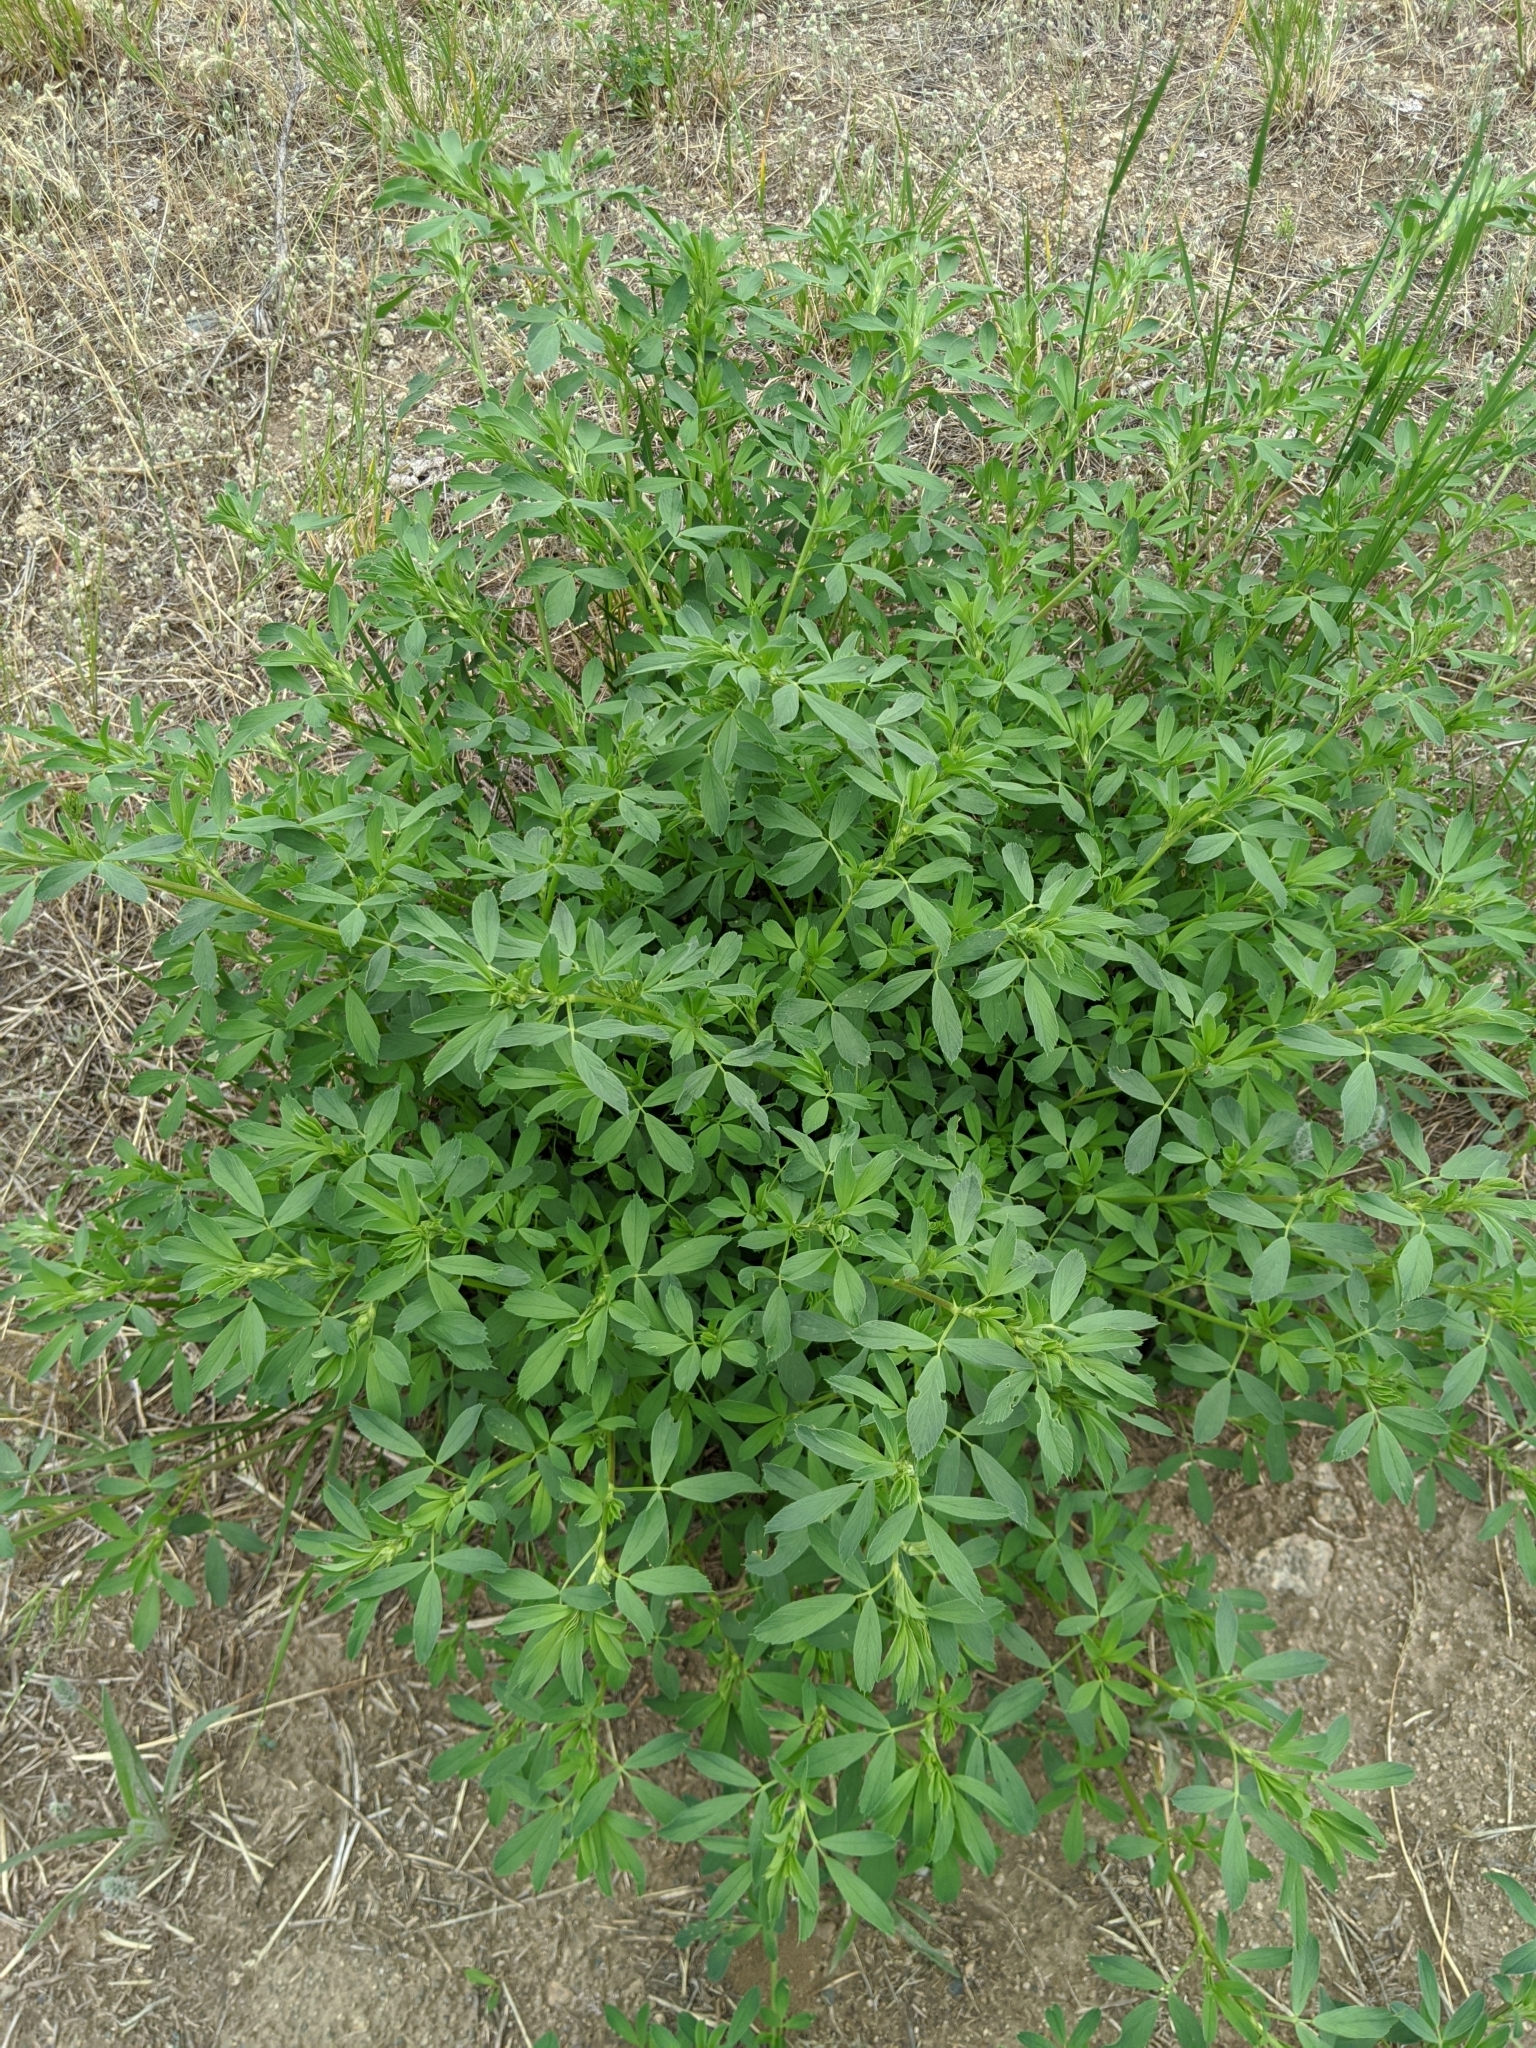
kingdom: Plantae
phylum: Tracheophyta
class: Magnoliopsida
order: Fabales
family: Fabaceae
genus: Medicago
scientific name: Medicago sativa
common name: Alfalfa
